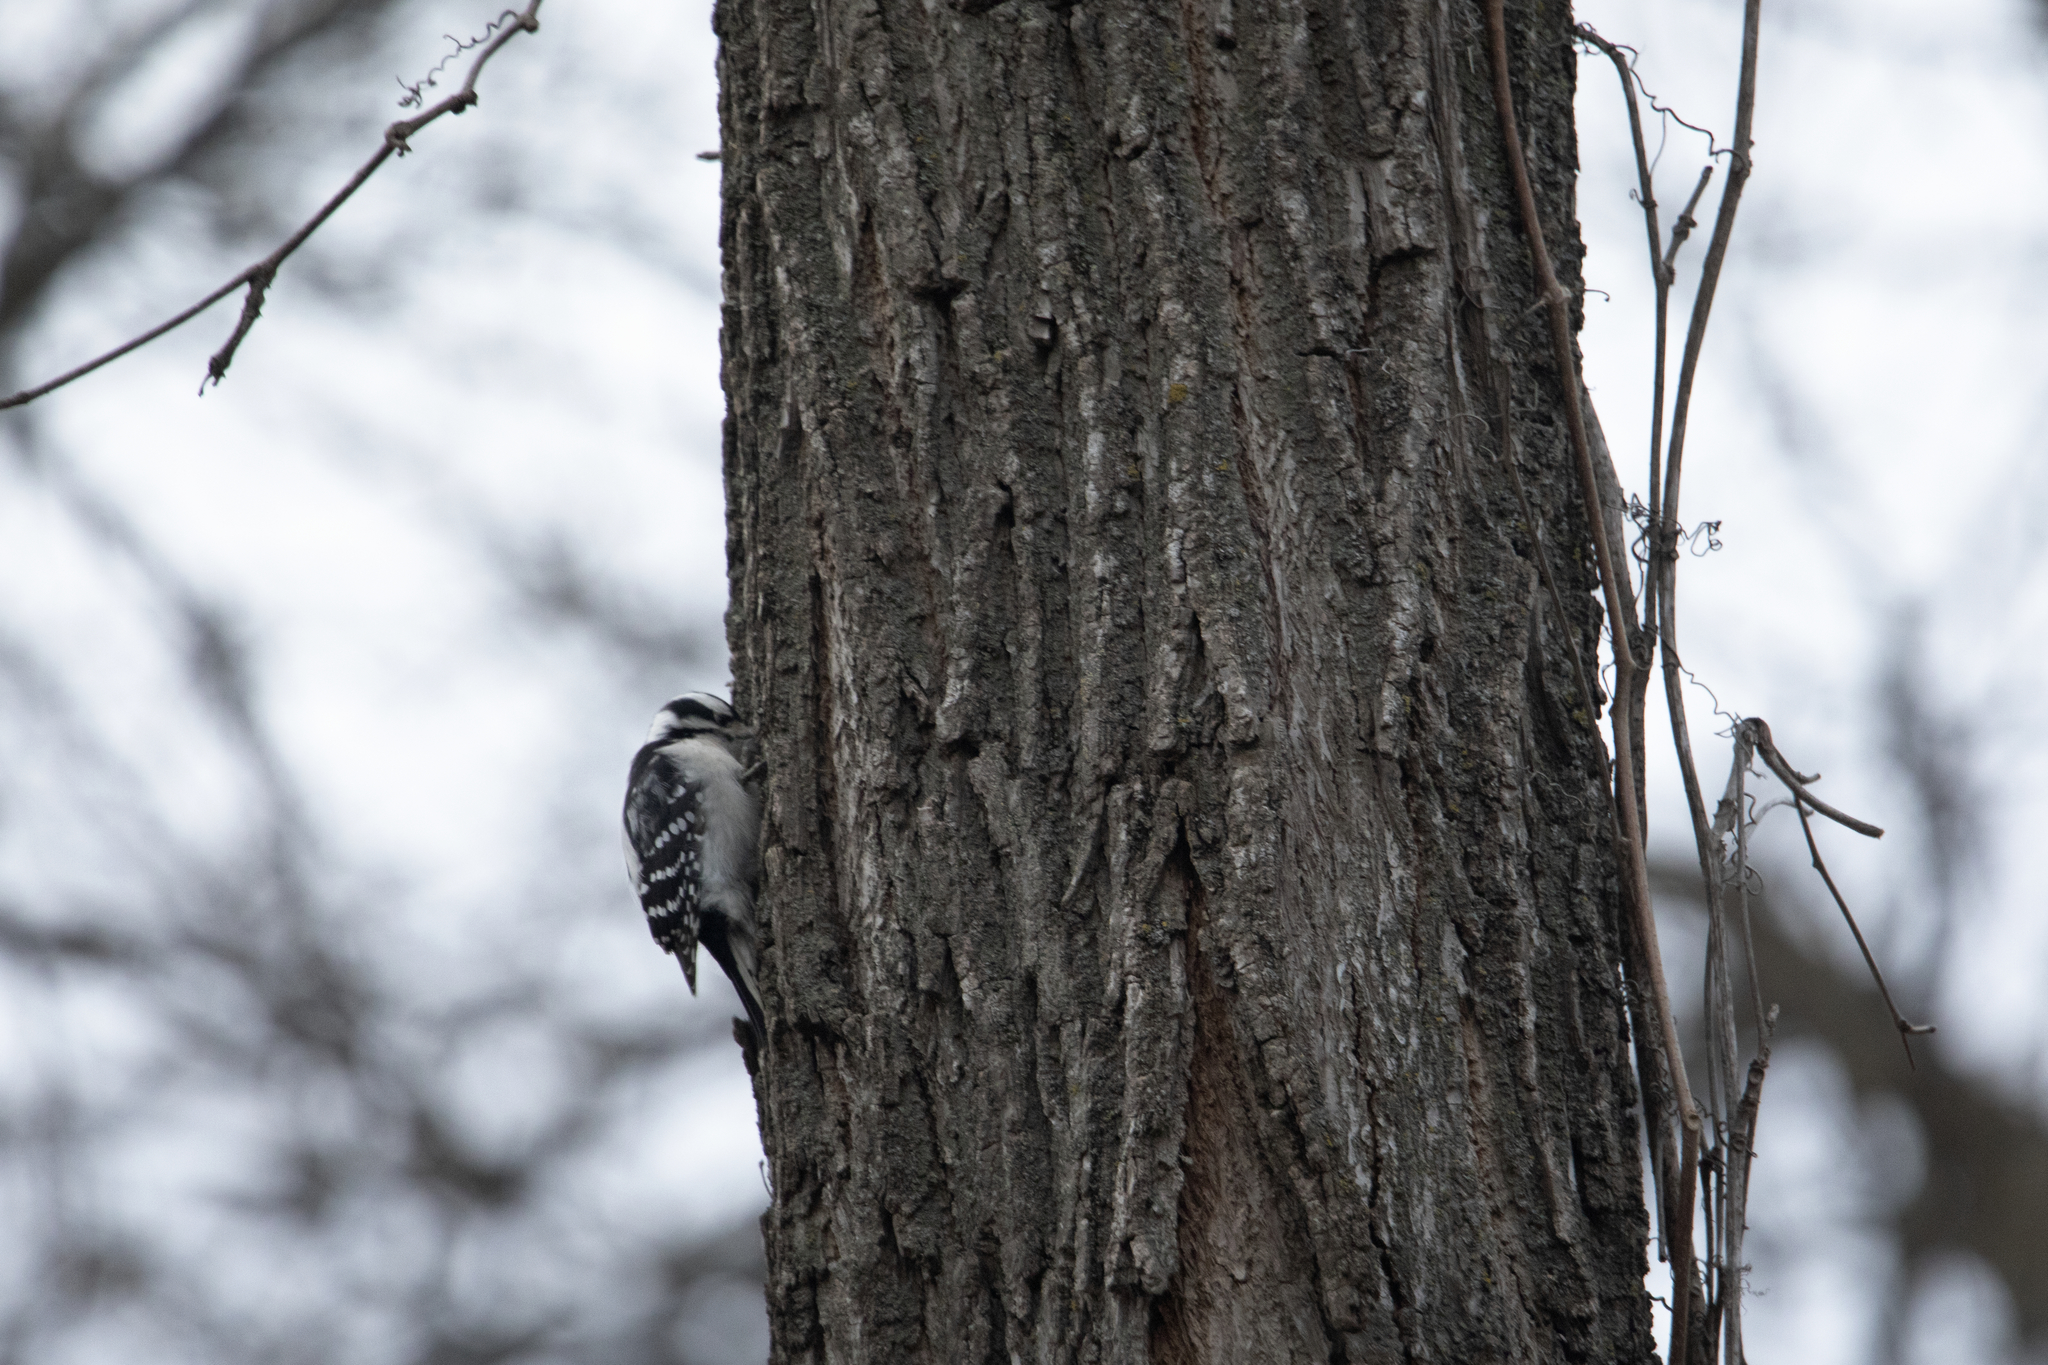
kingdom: Animalia
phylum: Chordata
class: Aves
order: Piciformes
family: Picidae
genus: Dryobates
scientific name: Dryobates pubescens
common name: Downy woodpecker
